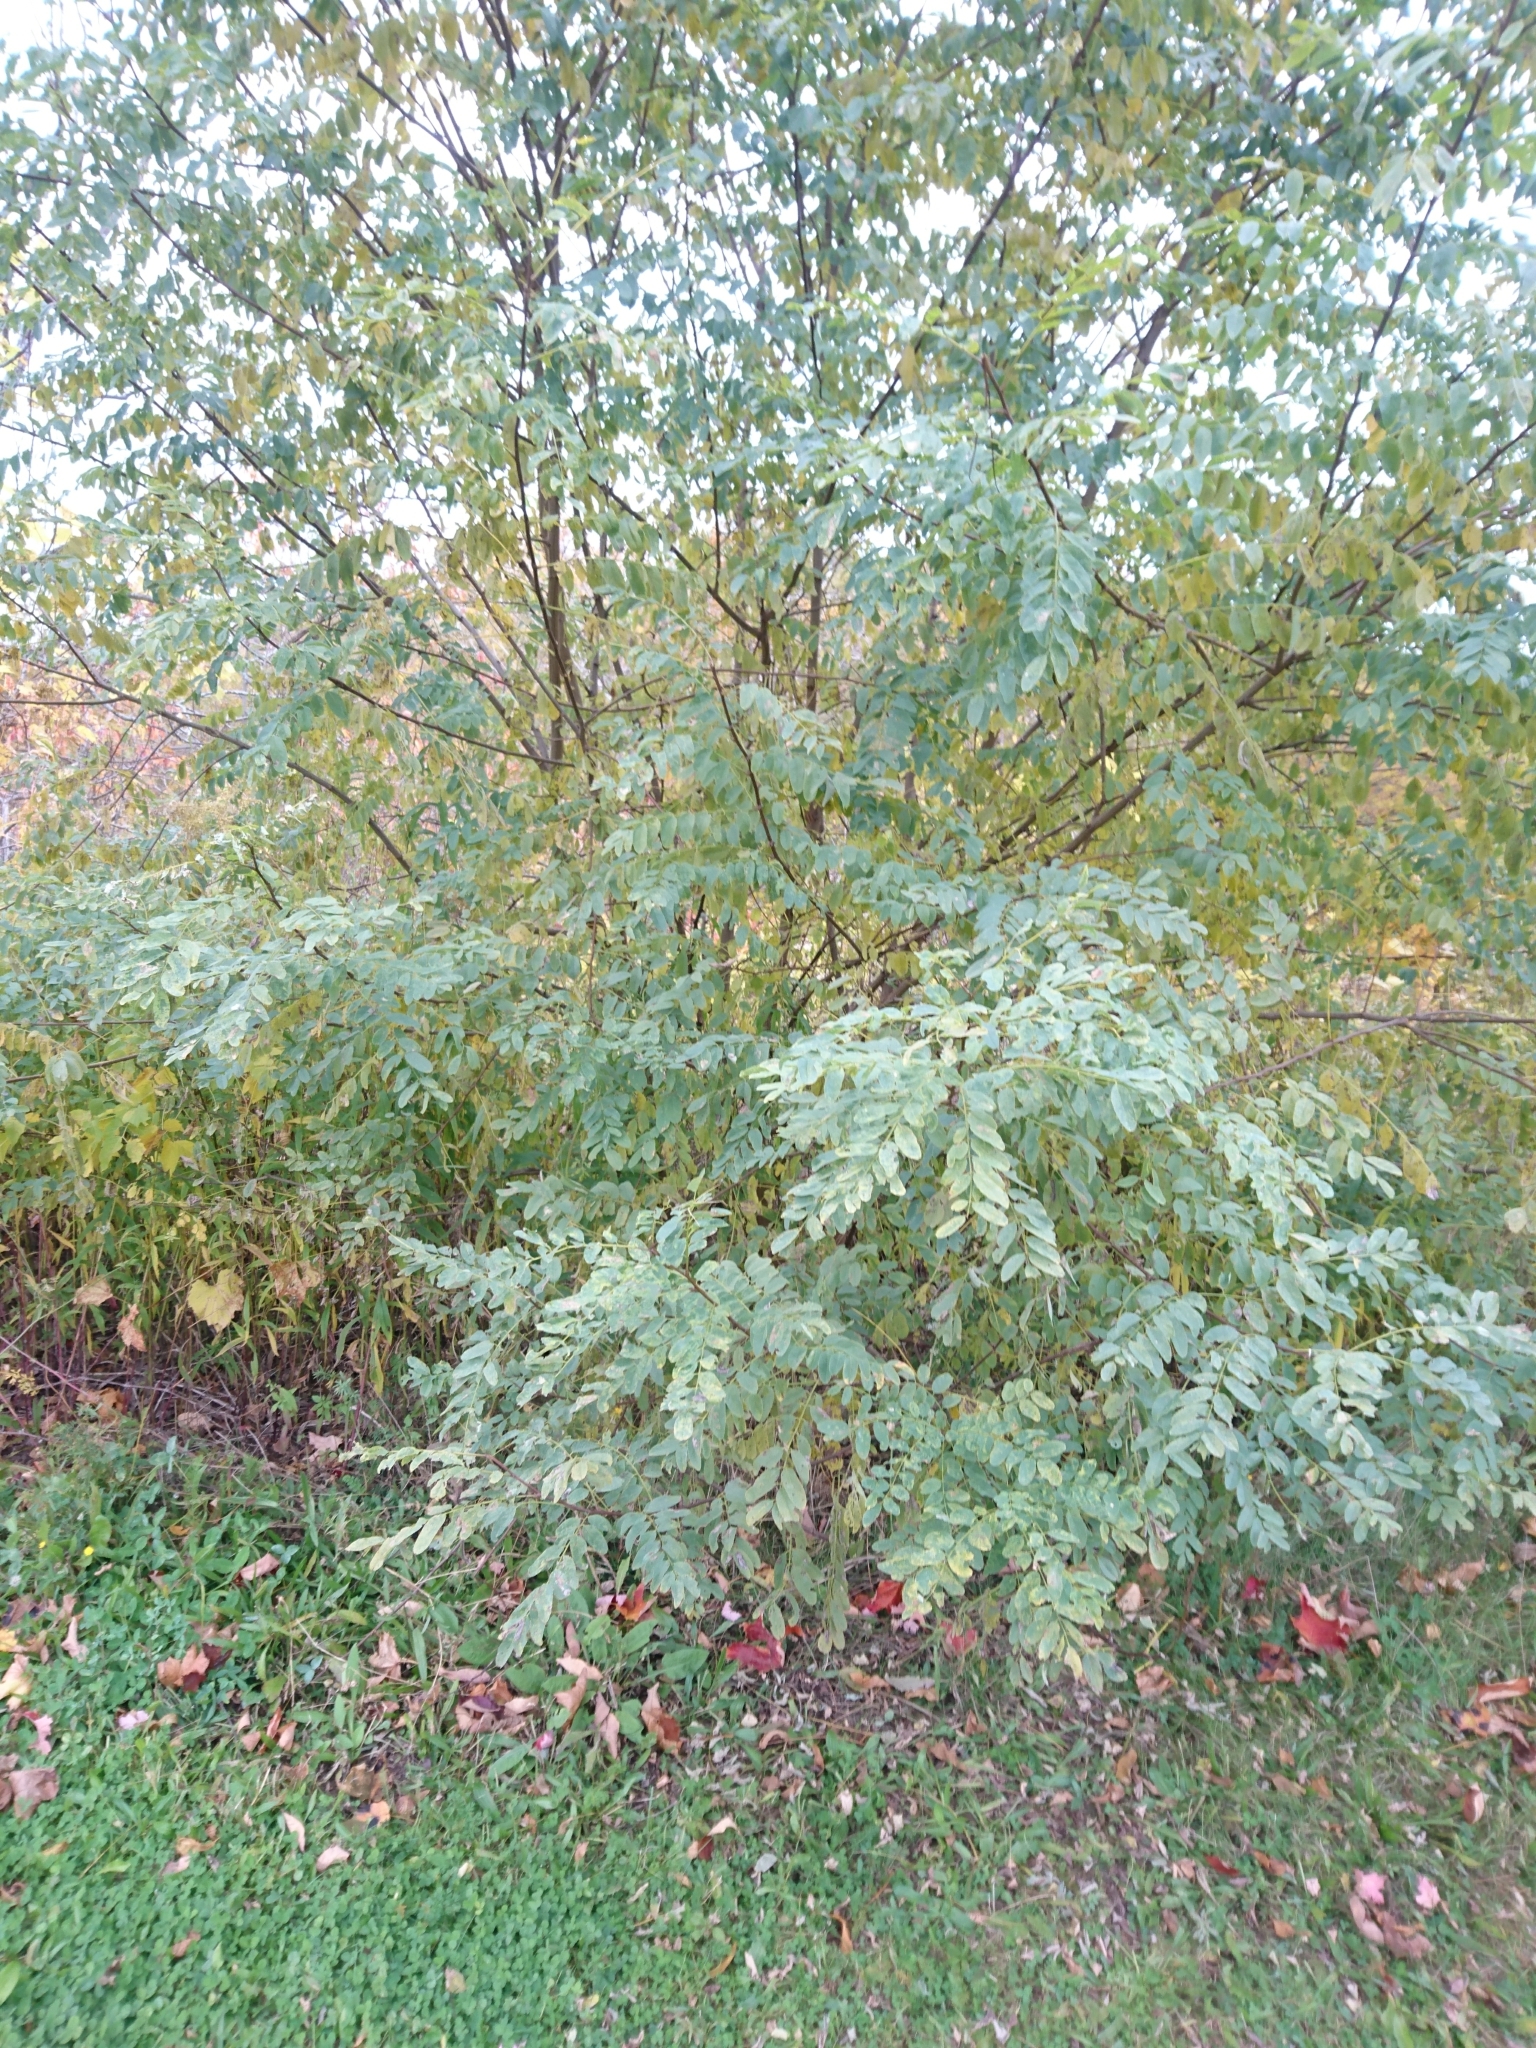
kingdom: Plantae
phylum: Tracheophyta
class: Magnoliopsida
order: Fabales
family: Fabaceae
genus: Robinia
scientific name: Robinia pseudoacacia
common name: Black locust
